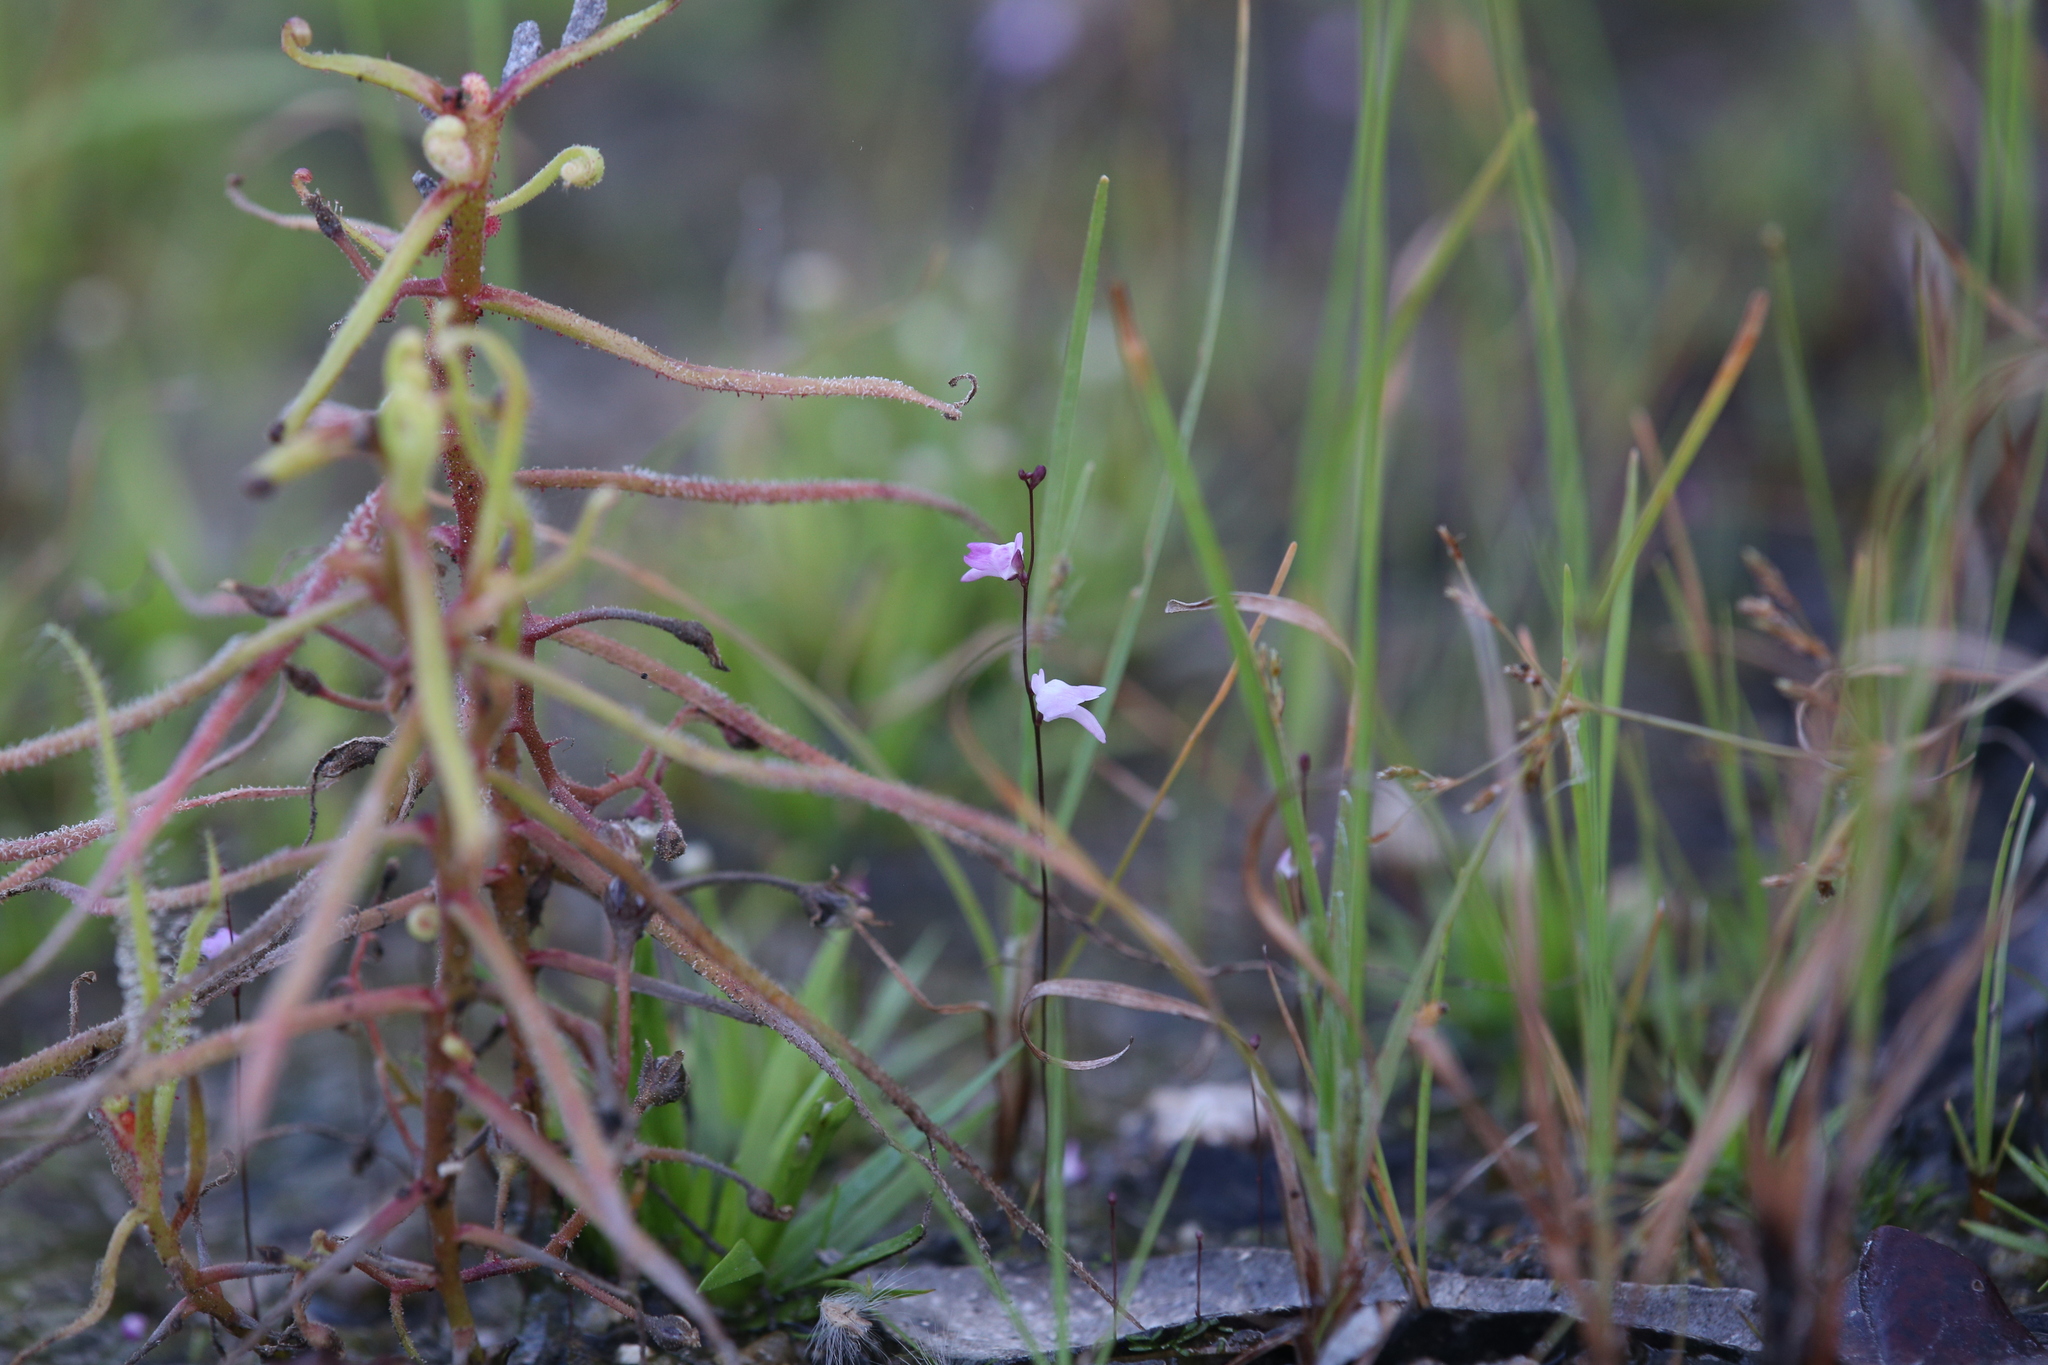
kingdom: Plantae
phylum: Tracheophyta
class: Magnoliopsida
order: Caryophyllales
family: Droseraceae
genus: Drosera
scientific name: Drosera indica
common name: Indian sundew
